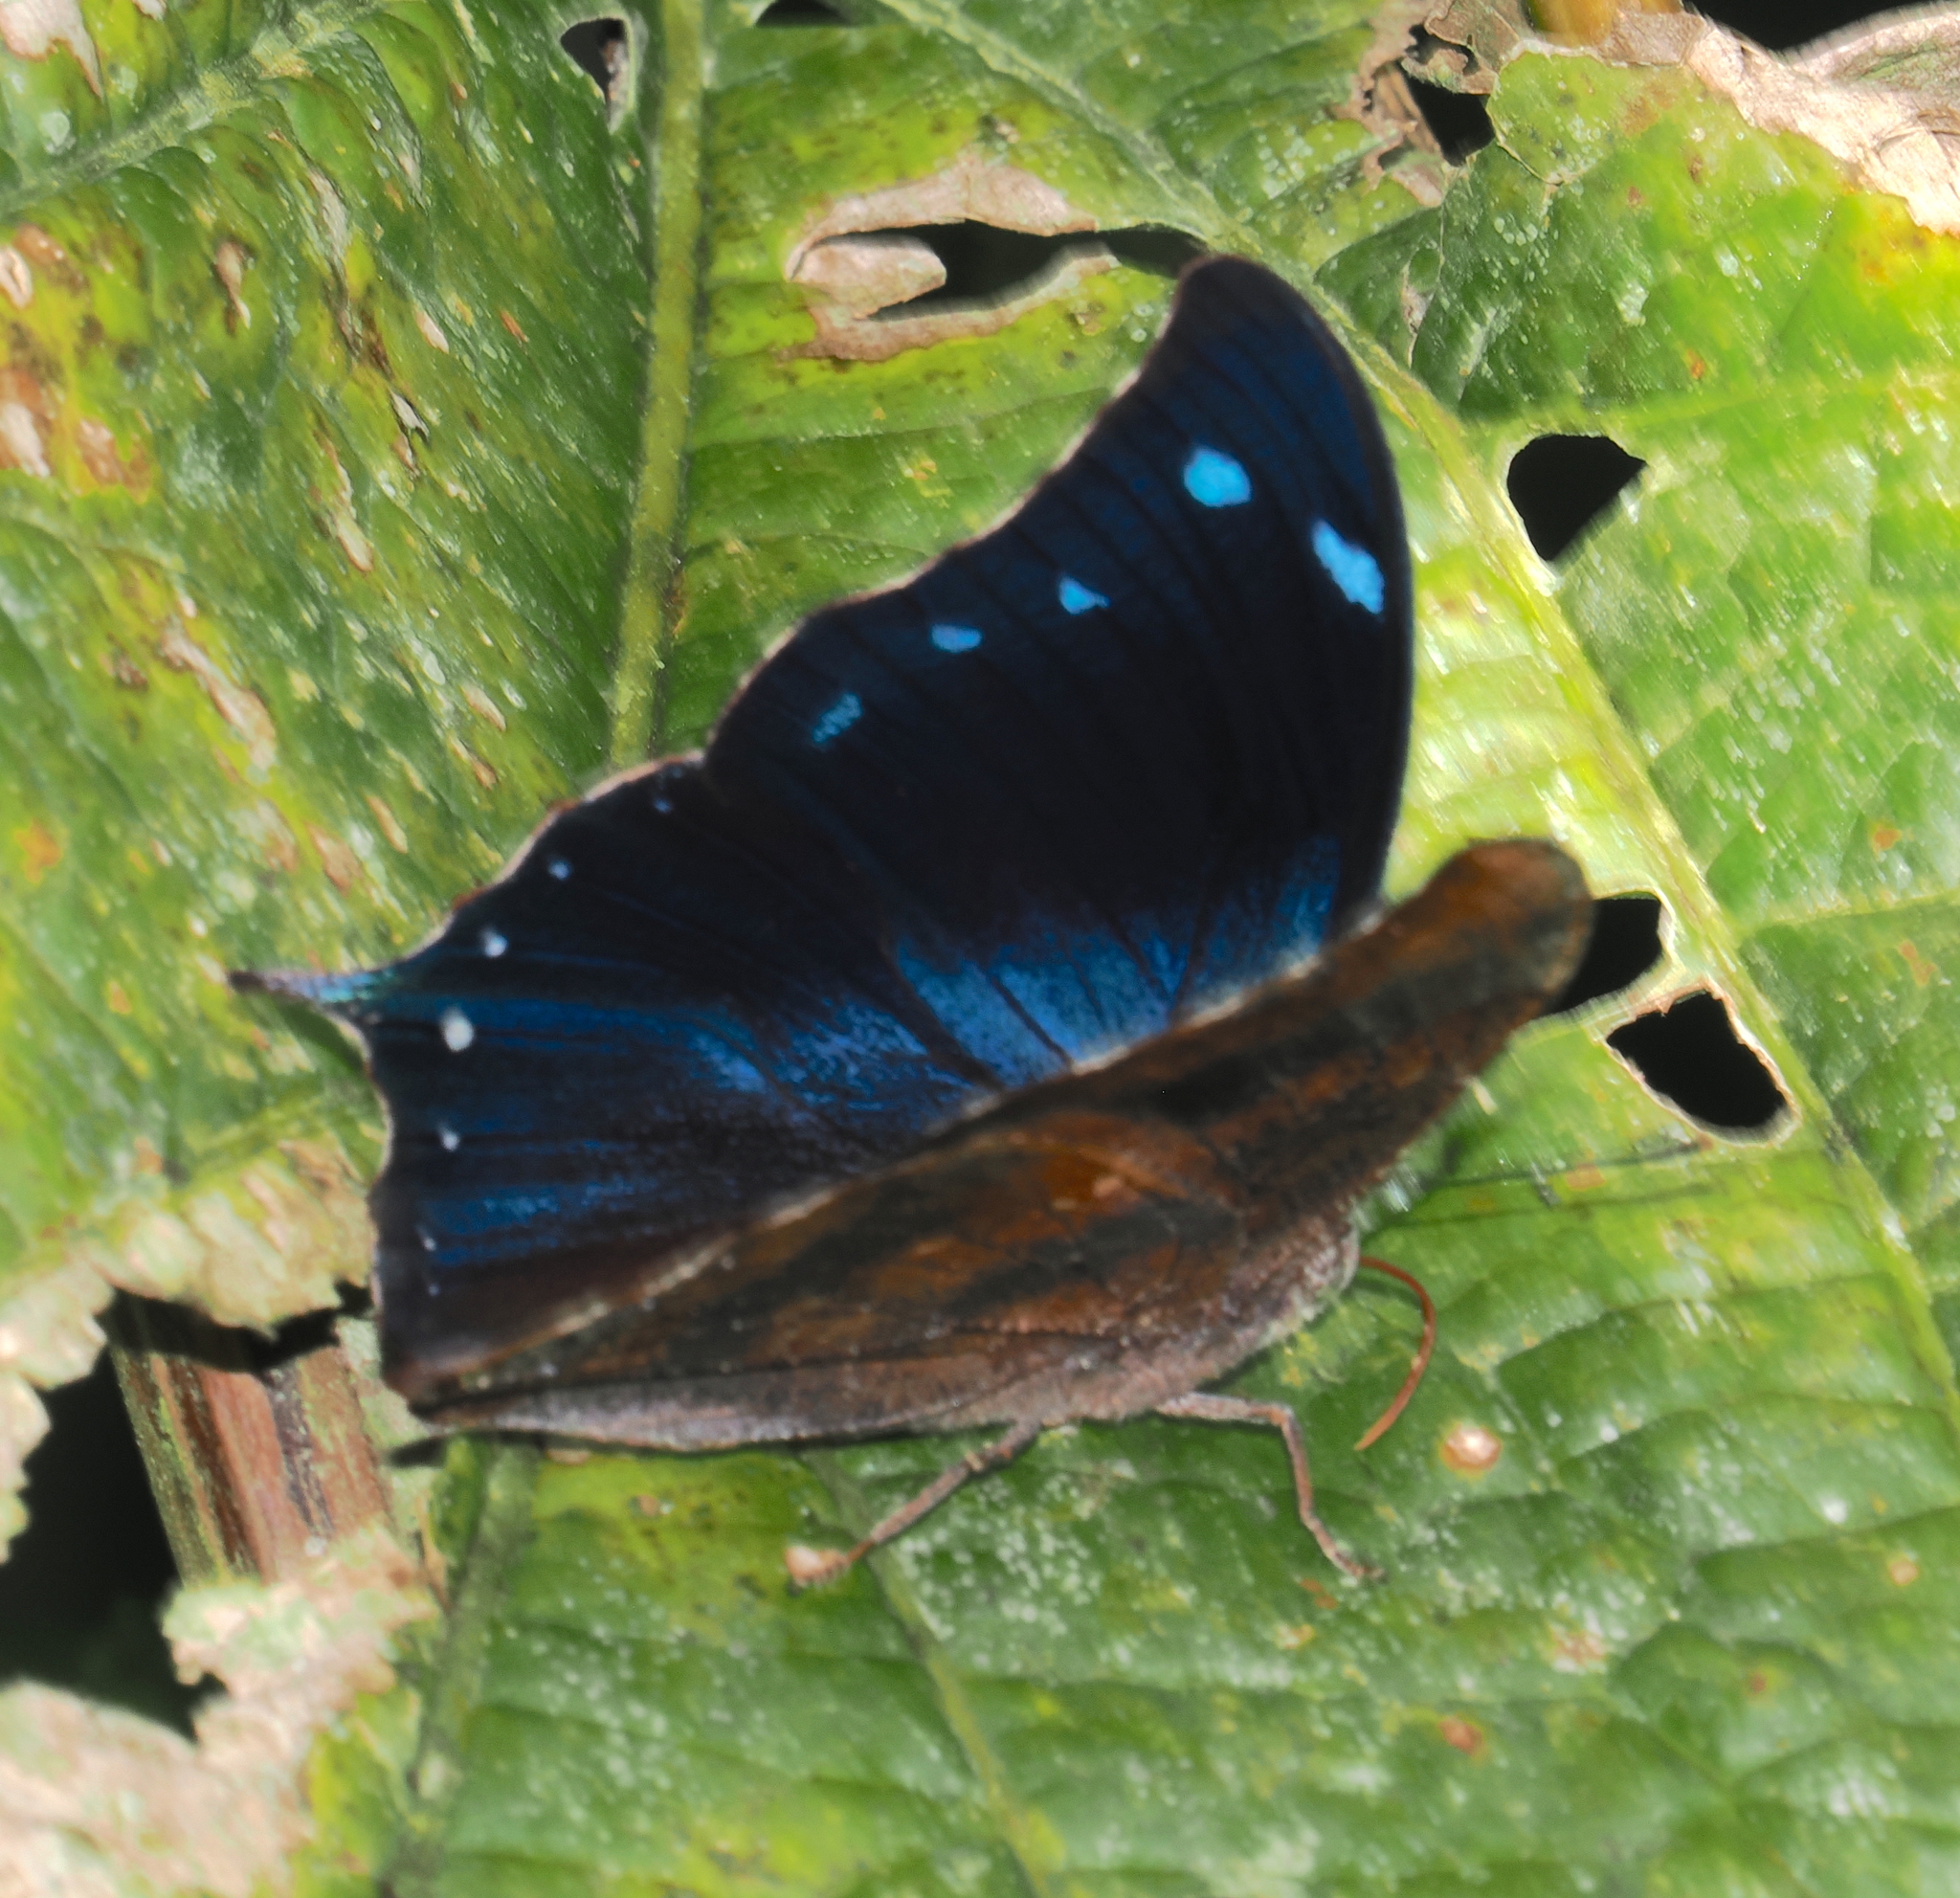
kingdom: Animalia
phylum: Arthropoda
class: Insecta
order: Lepidoptera
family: Nymphalidae
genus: Memphis
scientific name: Memphis perenna
